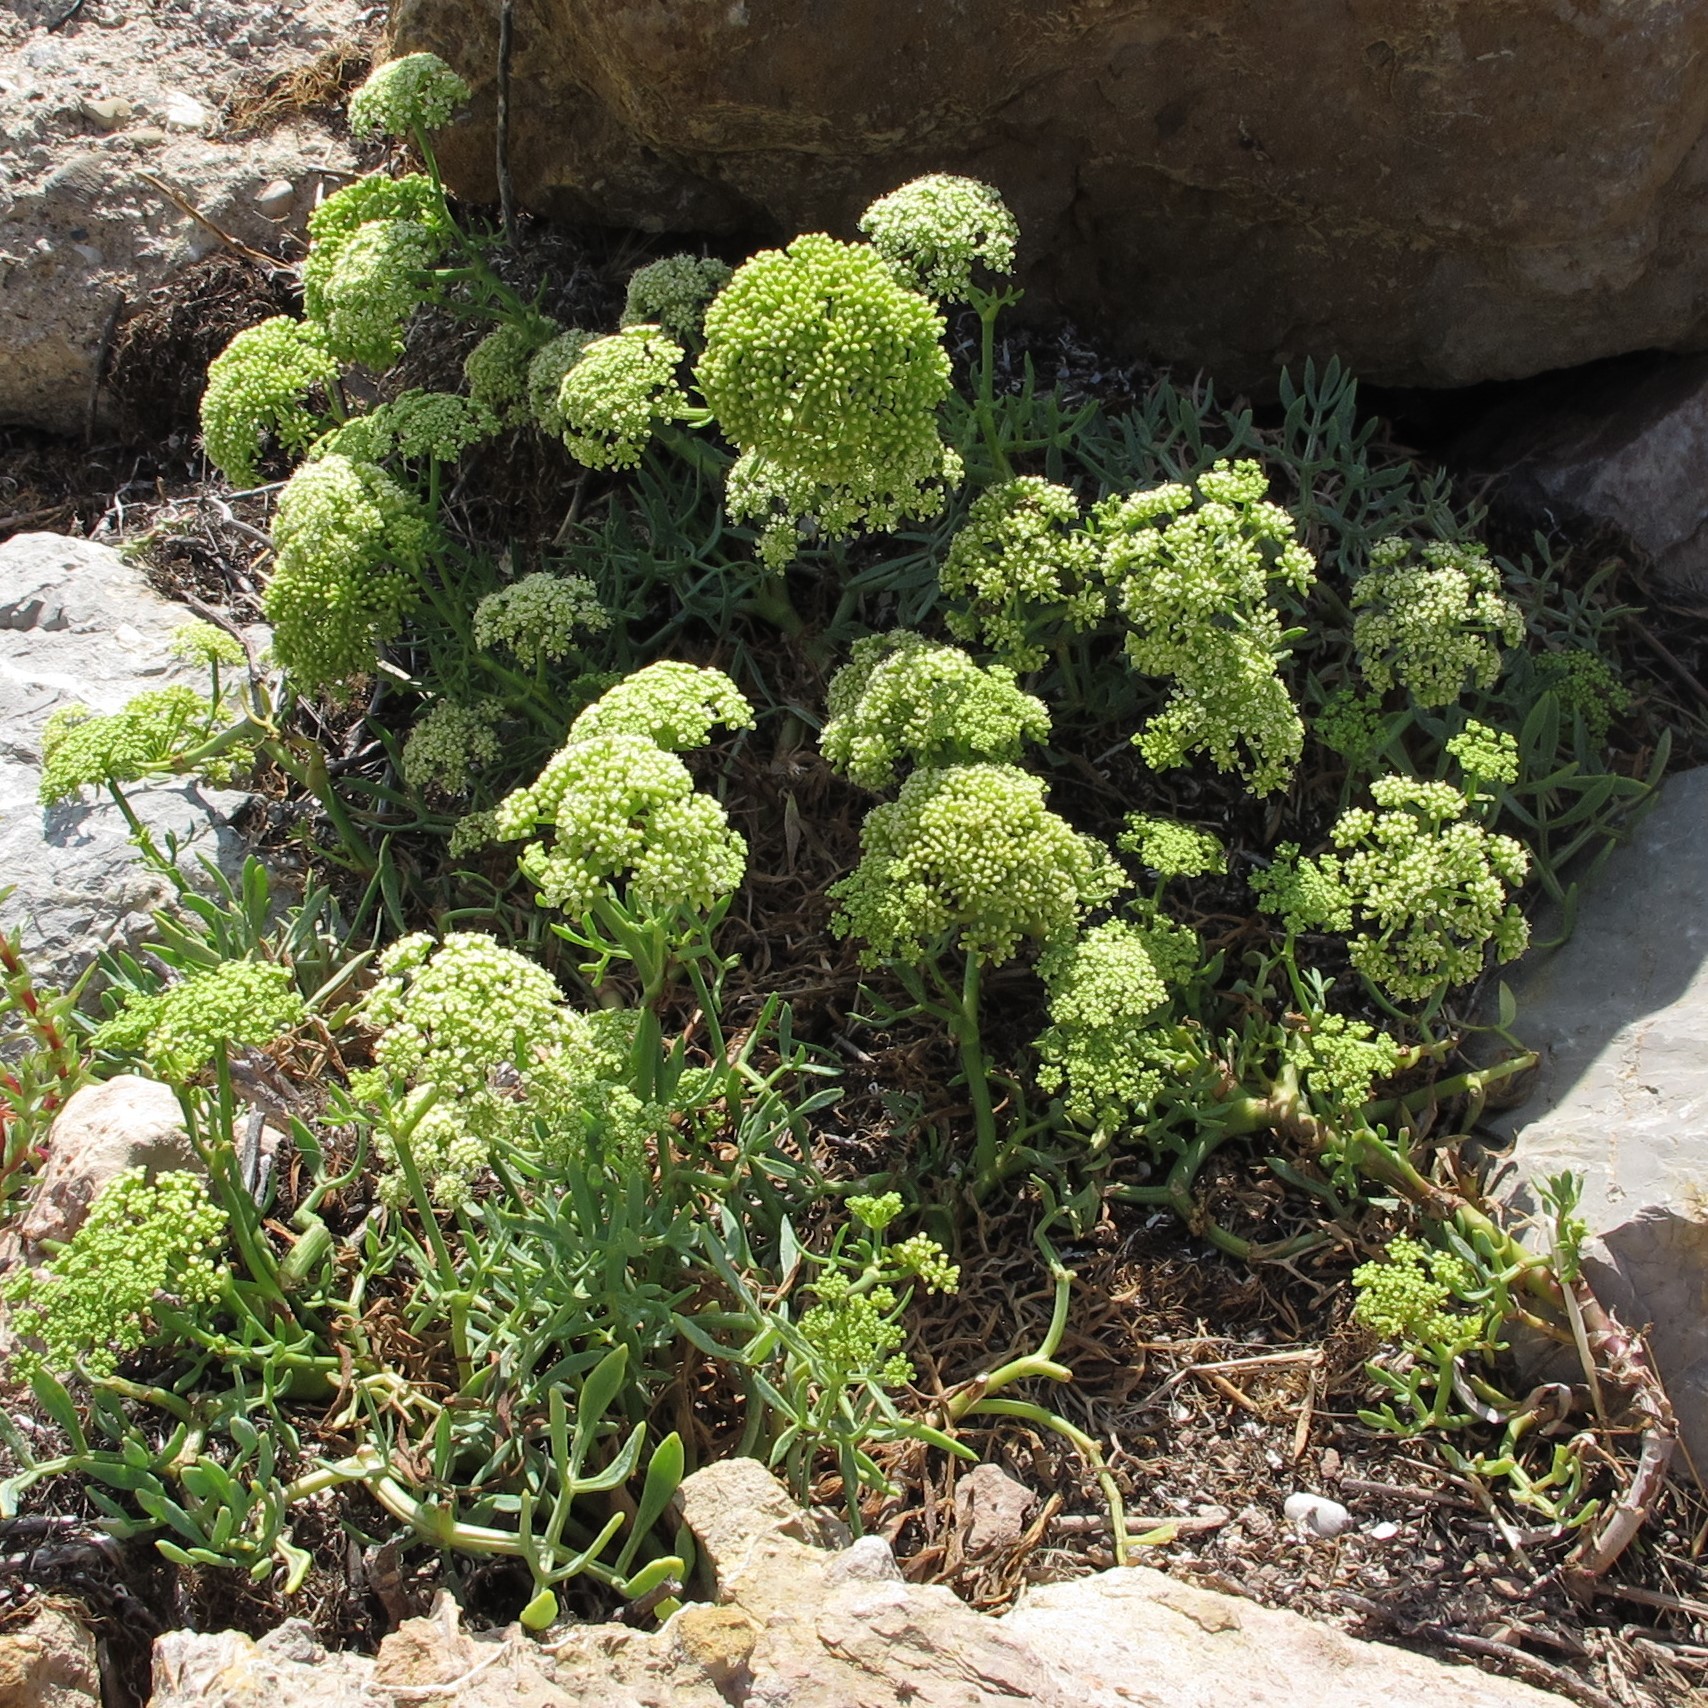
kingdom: Plantae
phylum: Tracheophyta
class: Magnoliopsida
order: Apiales
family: Apiaceae
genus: Crithmum
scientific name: Crithmum maritimum
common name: Rock samphire
